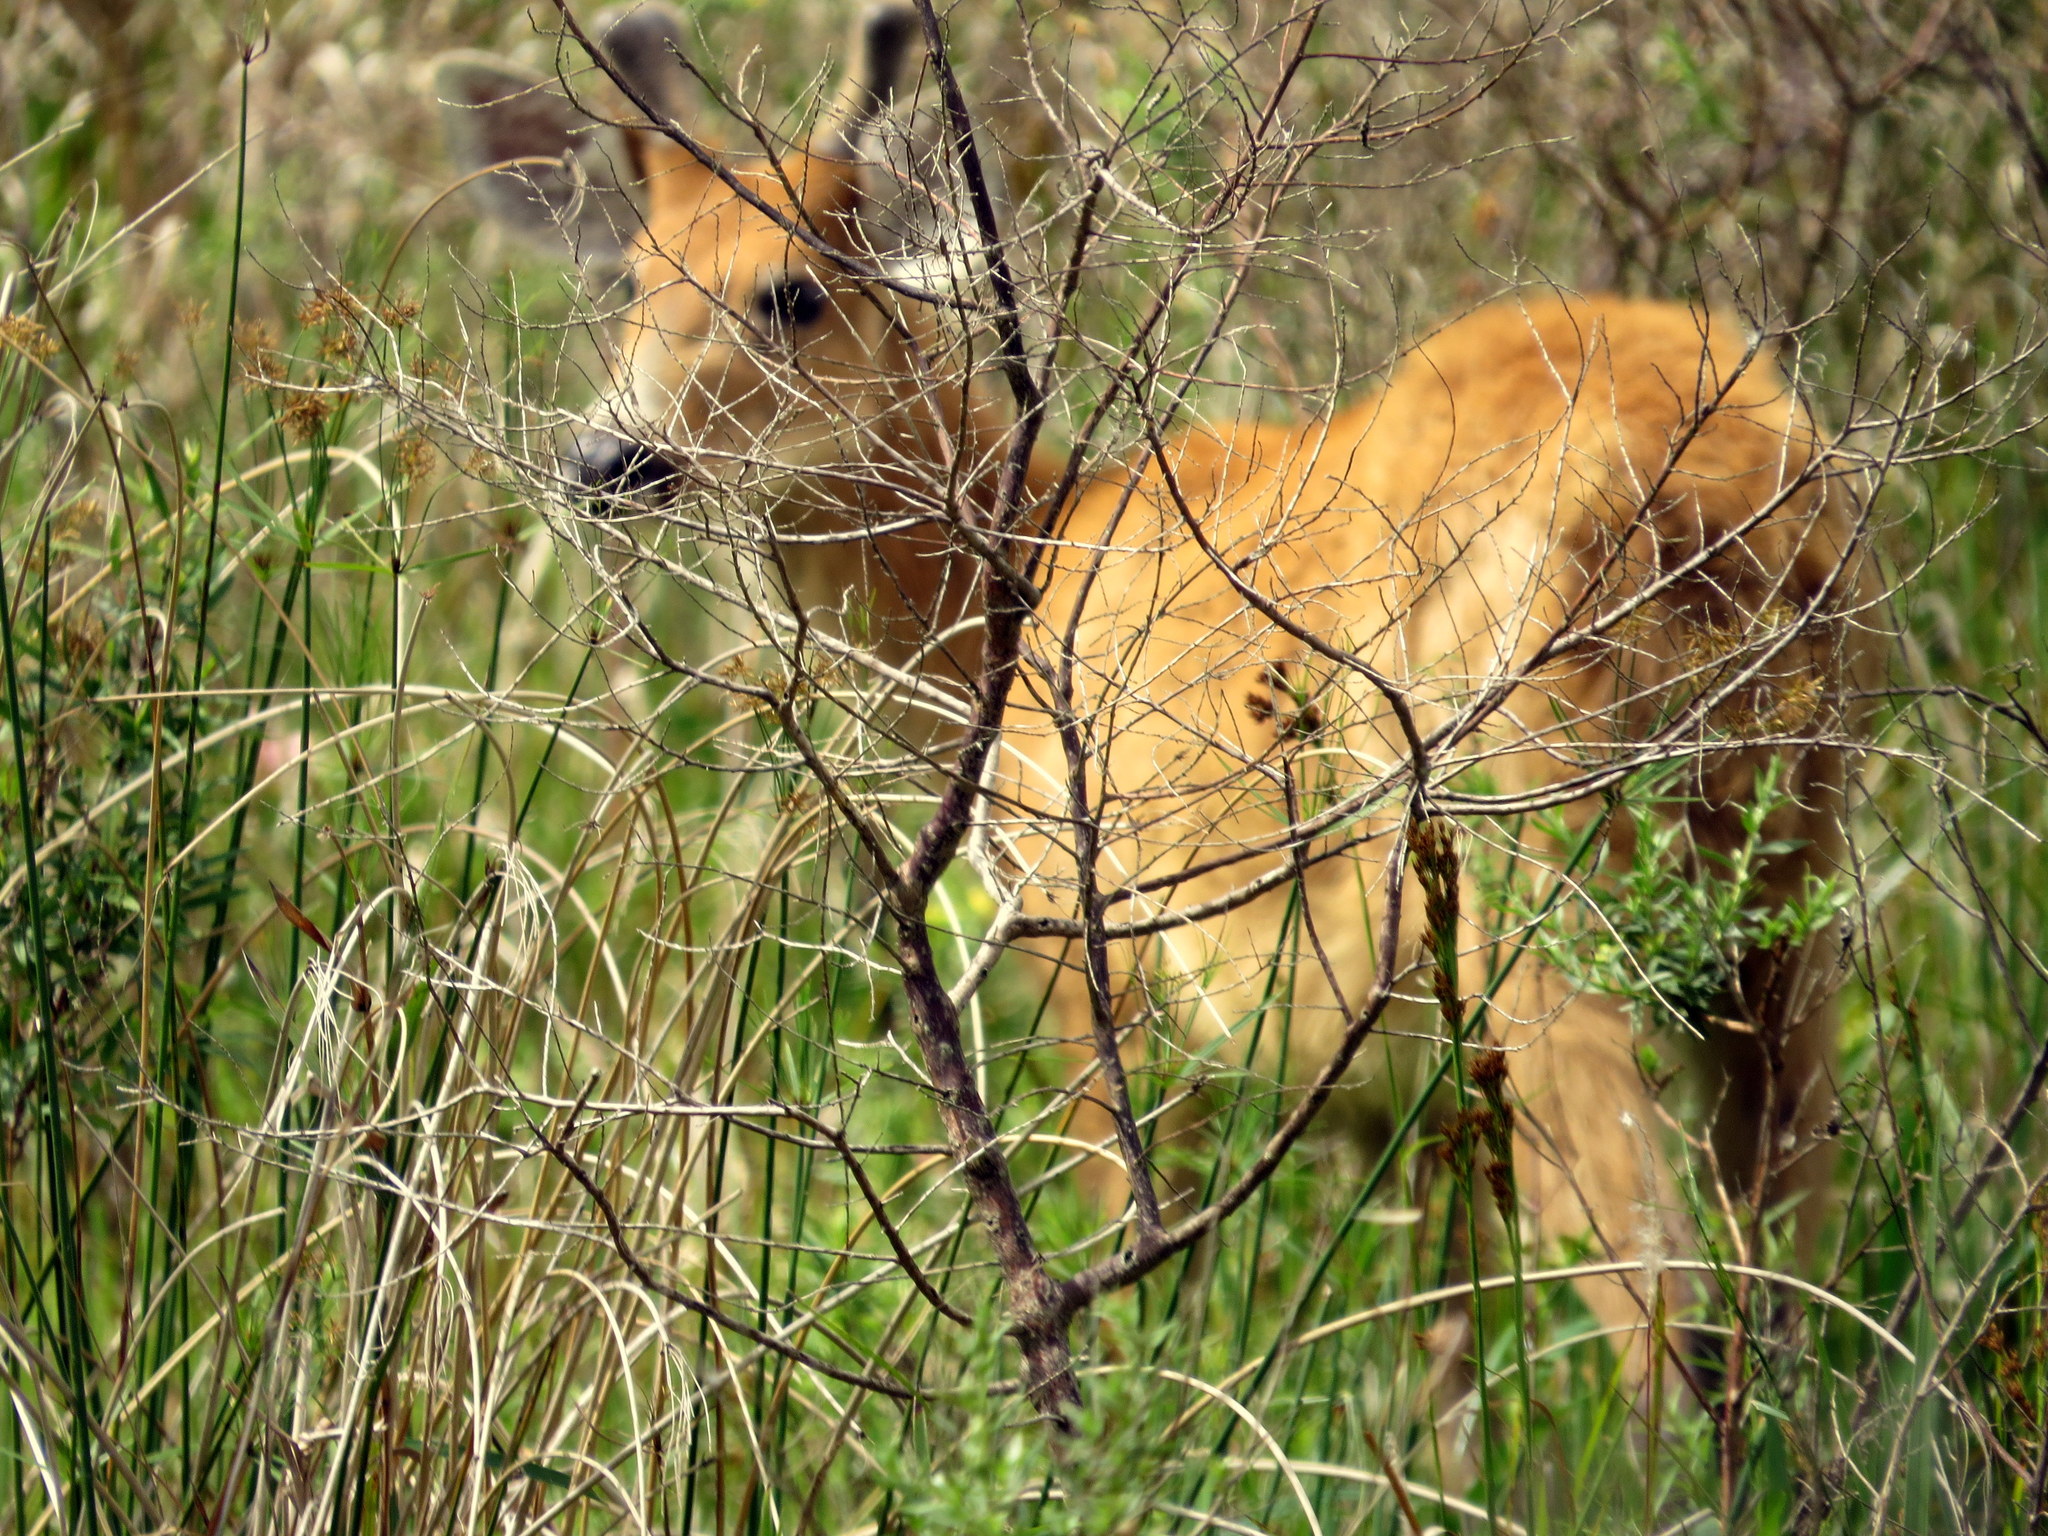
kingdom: Animalia
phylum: Chordata
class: Mammalia
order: Artiodactyla
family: Cervidae
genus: Blastocerus
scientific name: Blastocerus dichotomus
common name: Marsh deer
